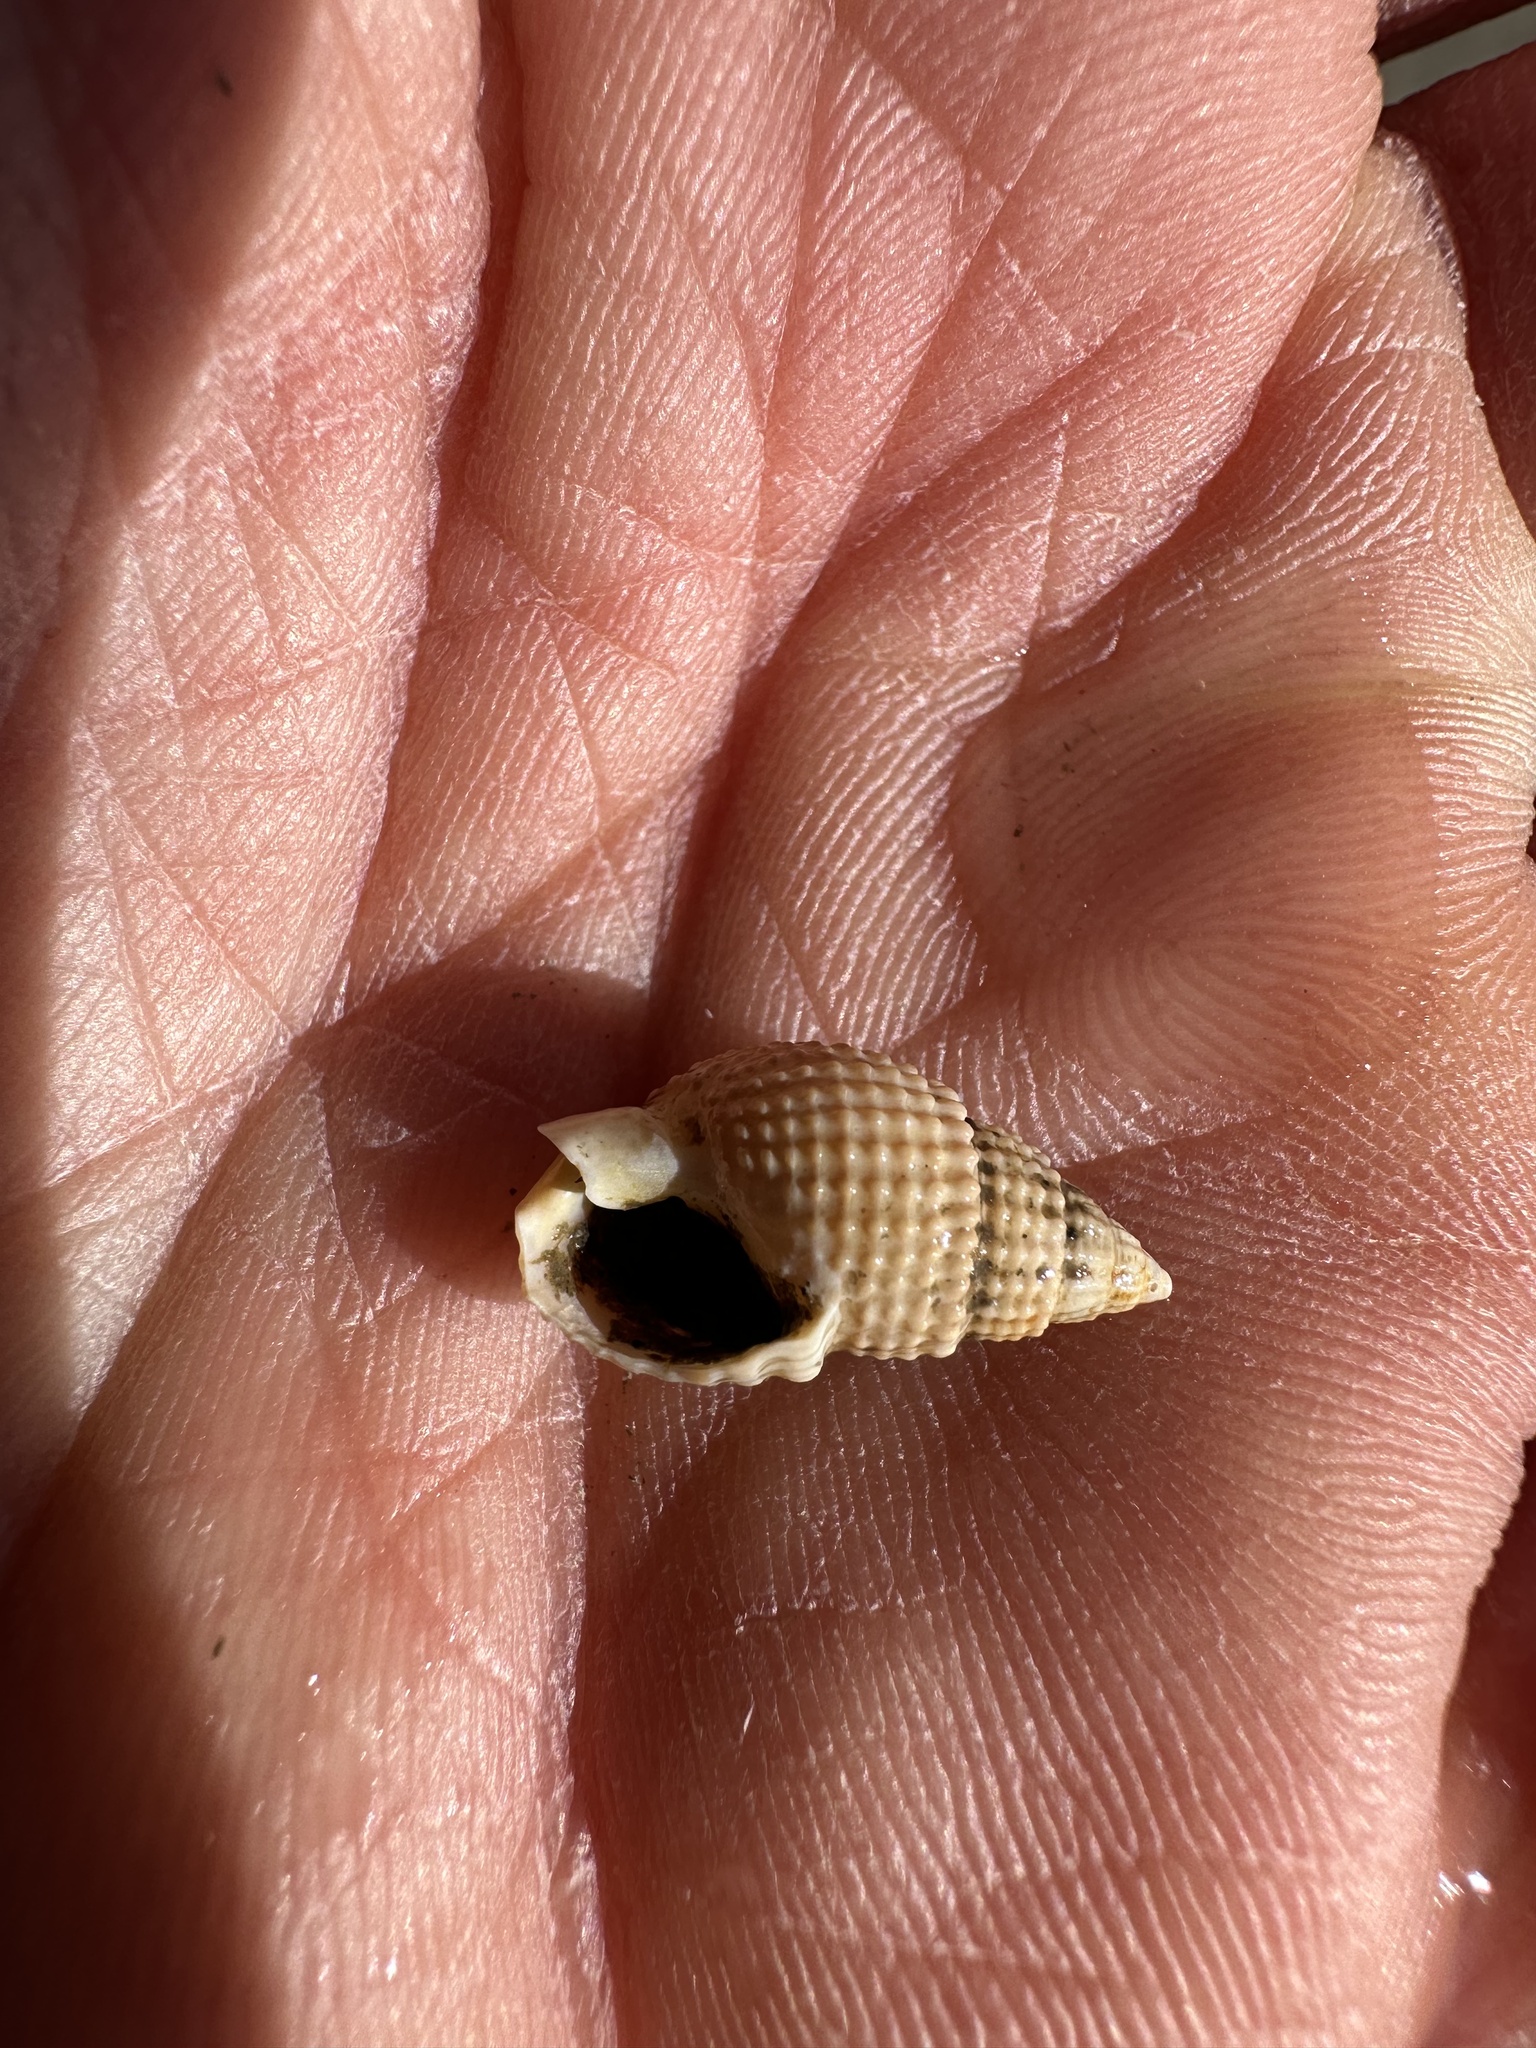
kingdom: Animalia
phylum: Mollusca
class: Gastropoda
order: Neogastropoda
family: Nassariidae
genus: Ilyanassa
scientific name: Ilyanassa trivittata
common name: Three-line mudsnail
